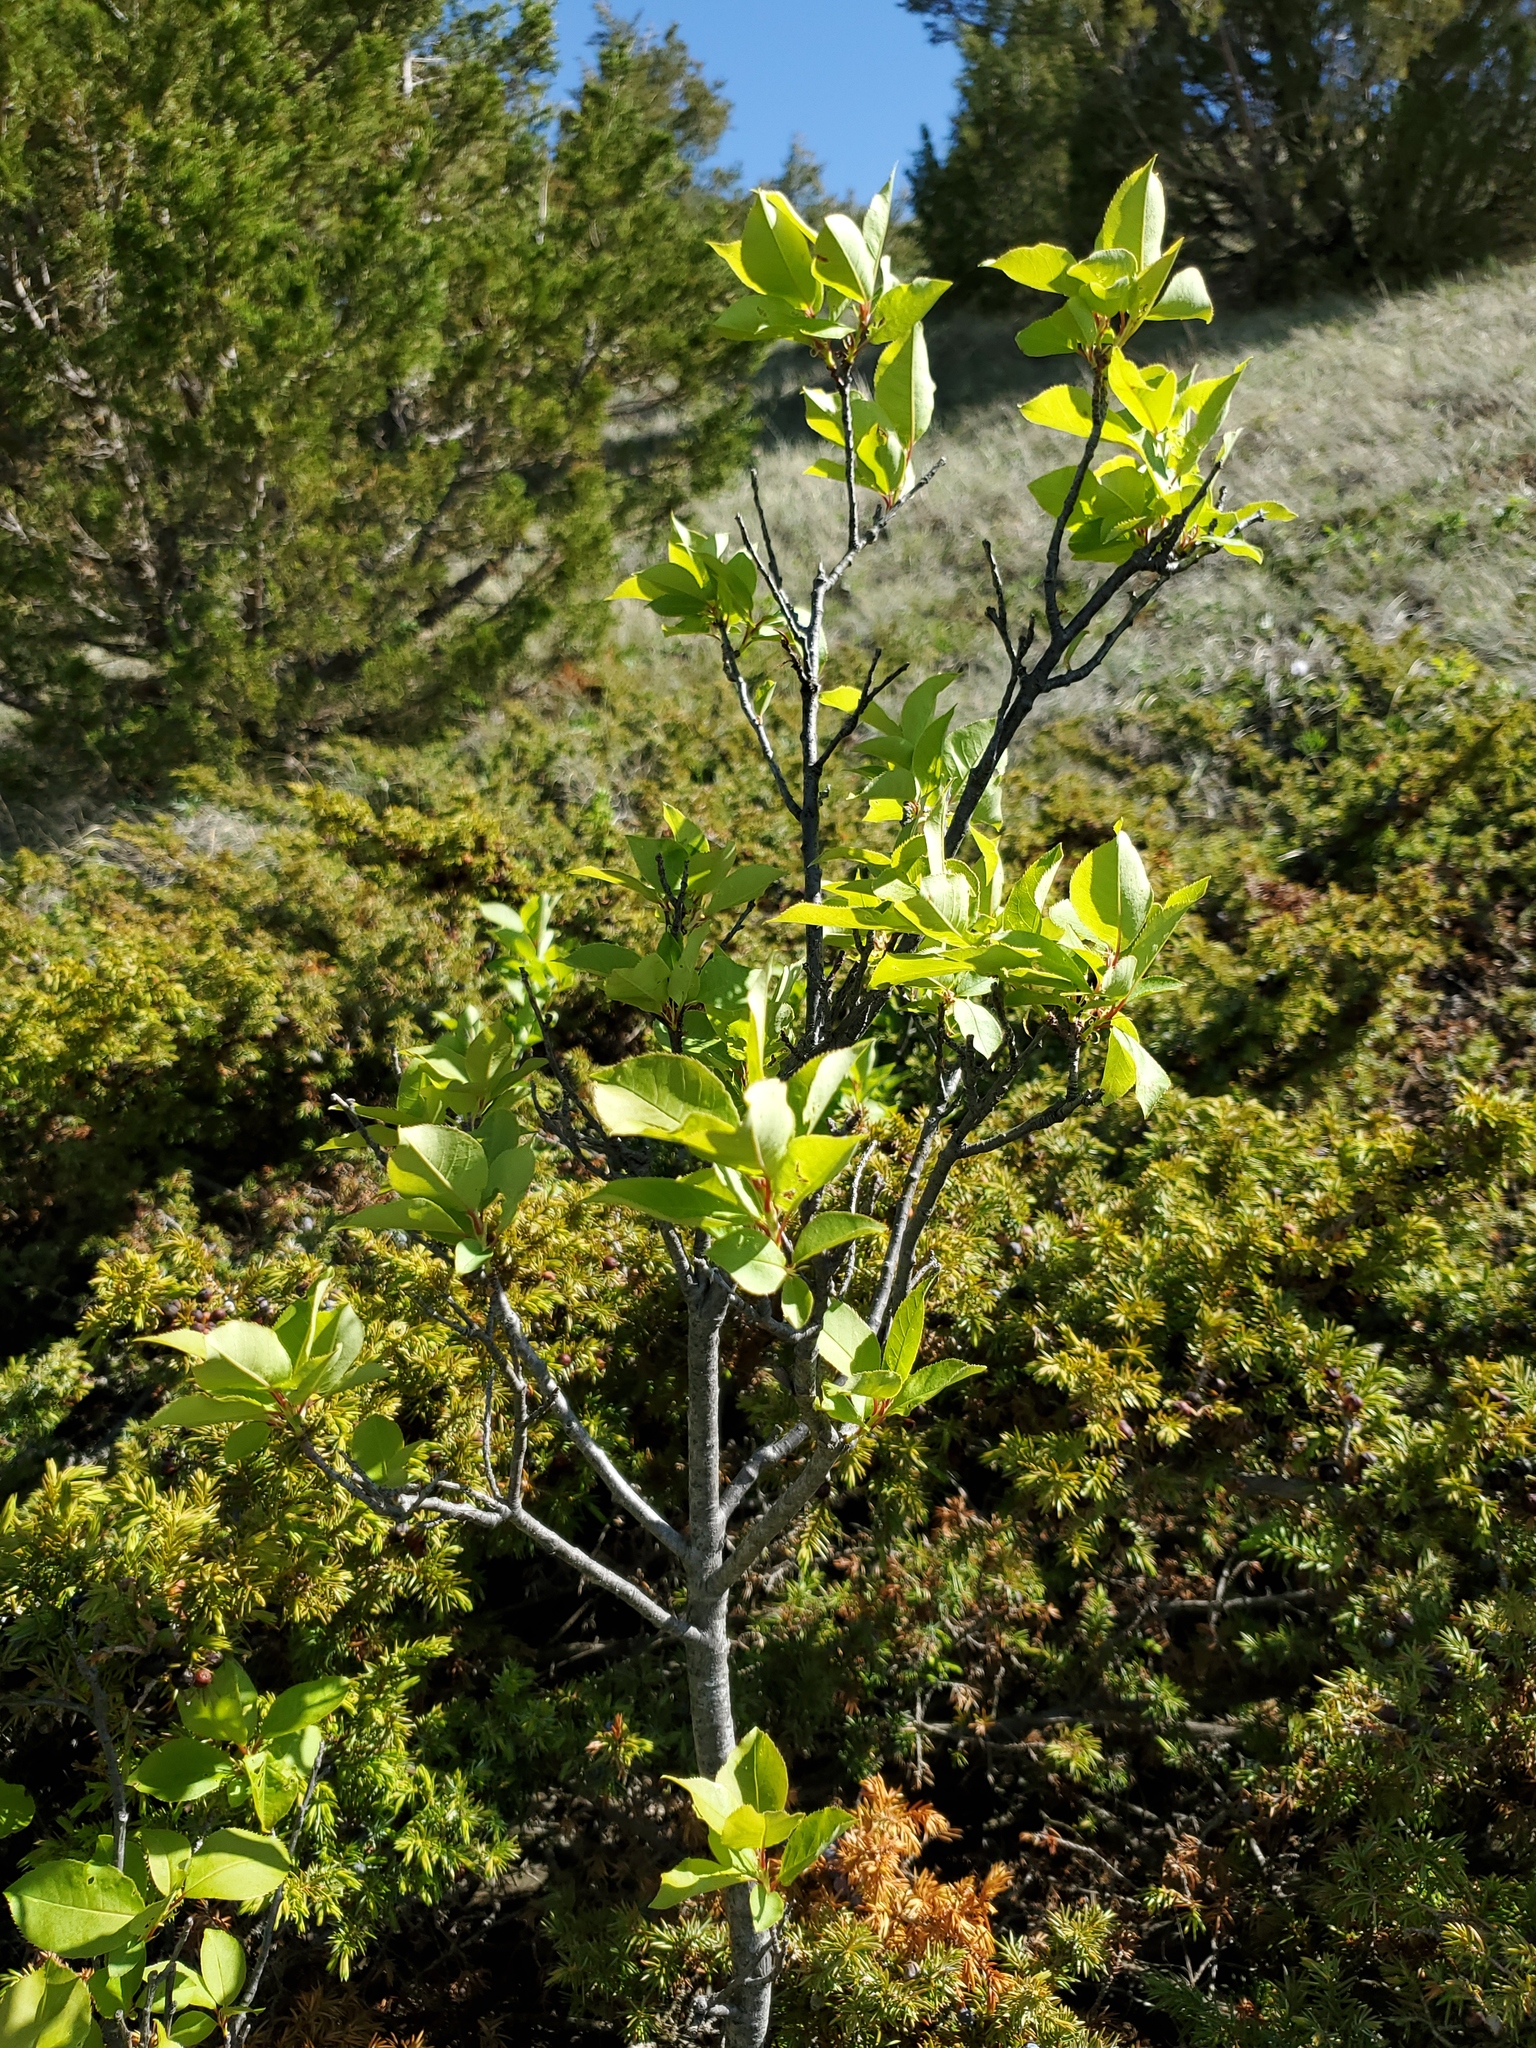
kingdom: Plantae
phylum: Tracheophyta
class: Magnoliopsida
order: Rosales
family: Rosaceae
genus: Prunus
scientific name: Prunus virginiana
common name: Chokecherry
